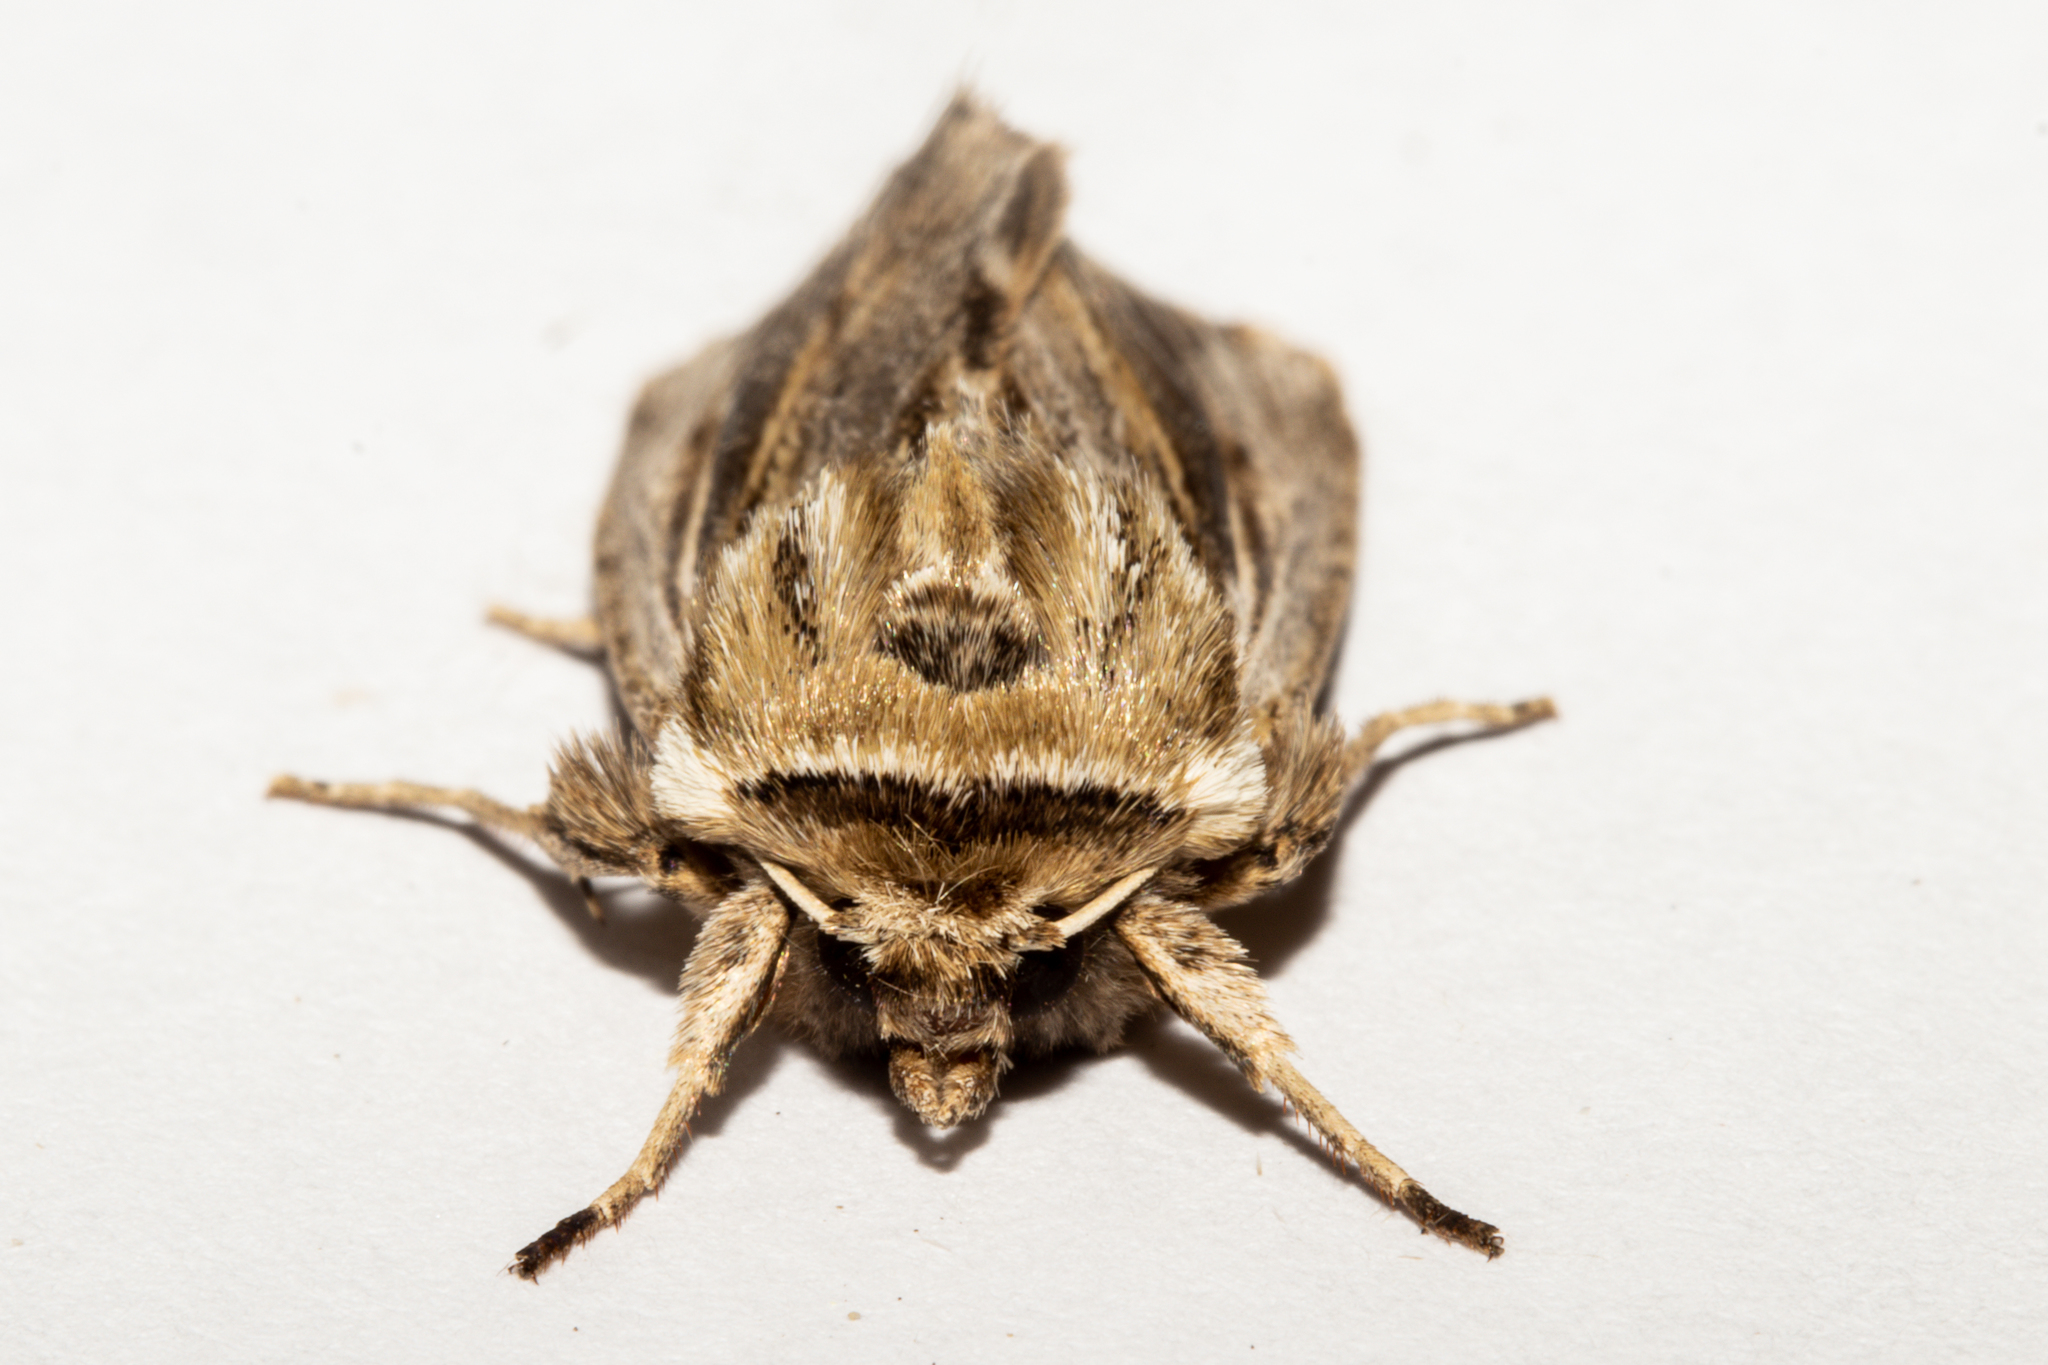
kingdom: Animalia
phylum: Arthropoda
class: Insecta
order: Lepidoptera
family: Noctuidae
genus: Persectania
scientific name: Persectania aversa
